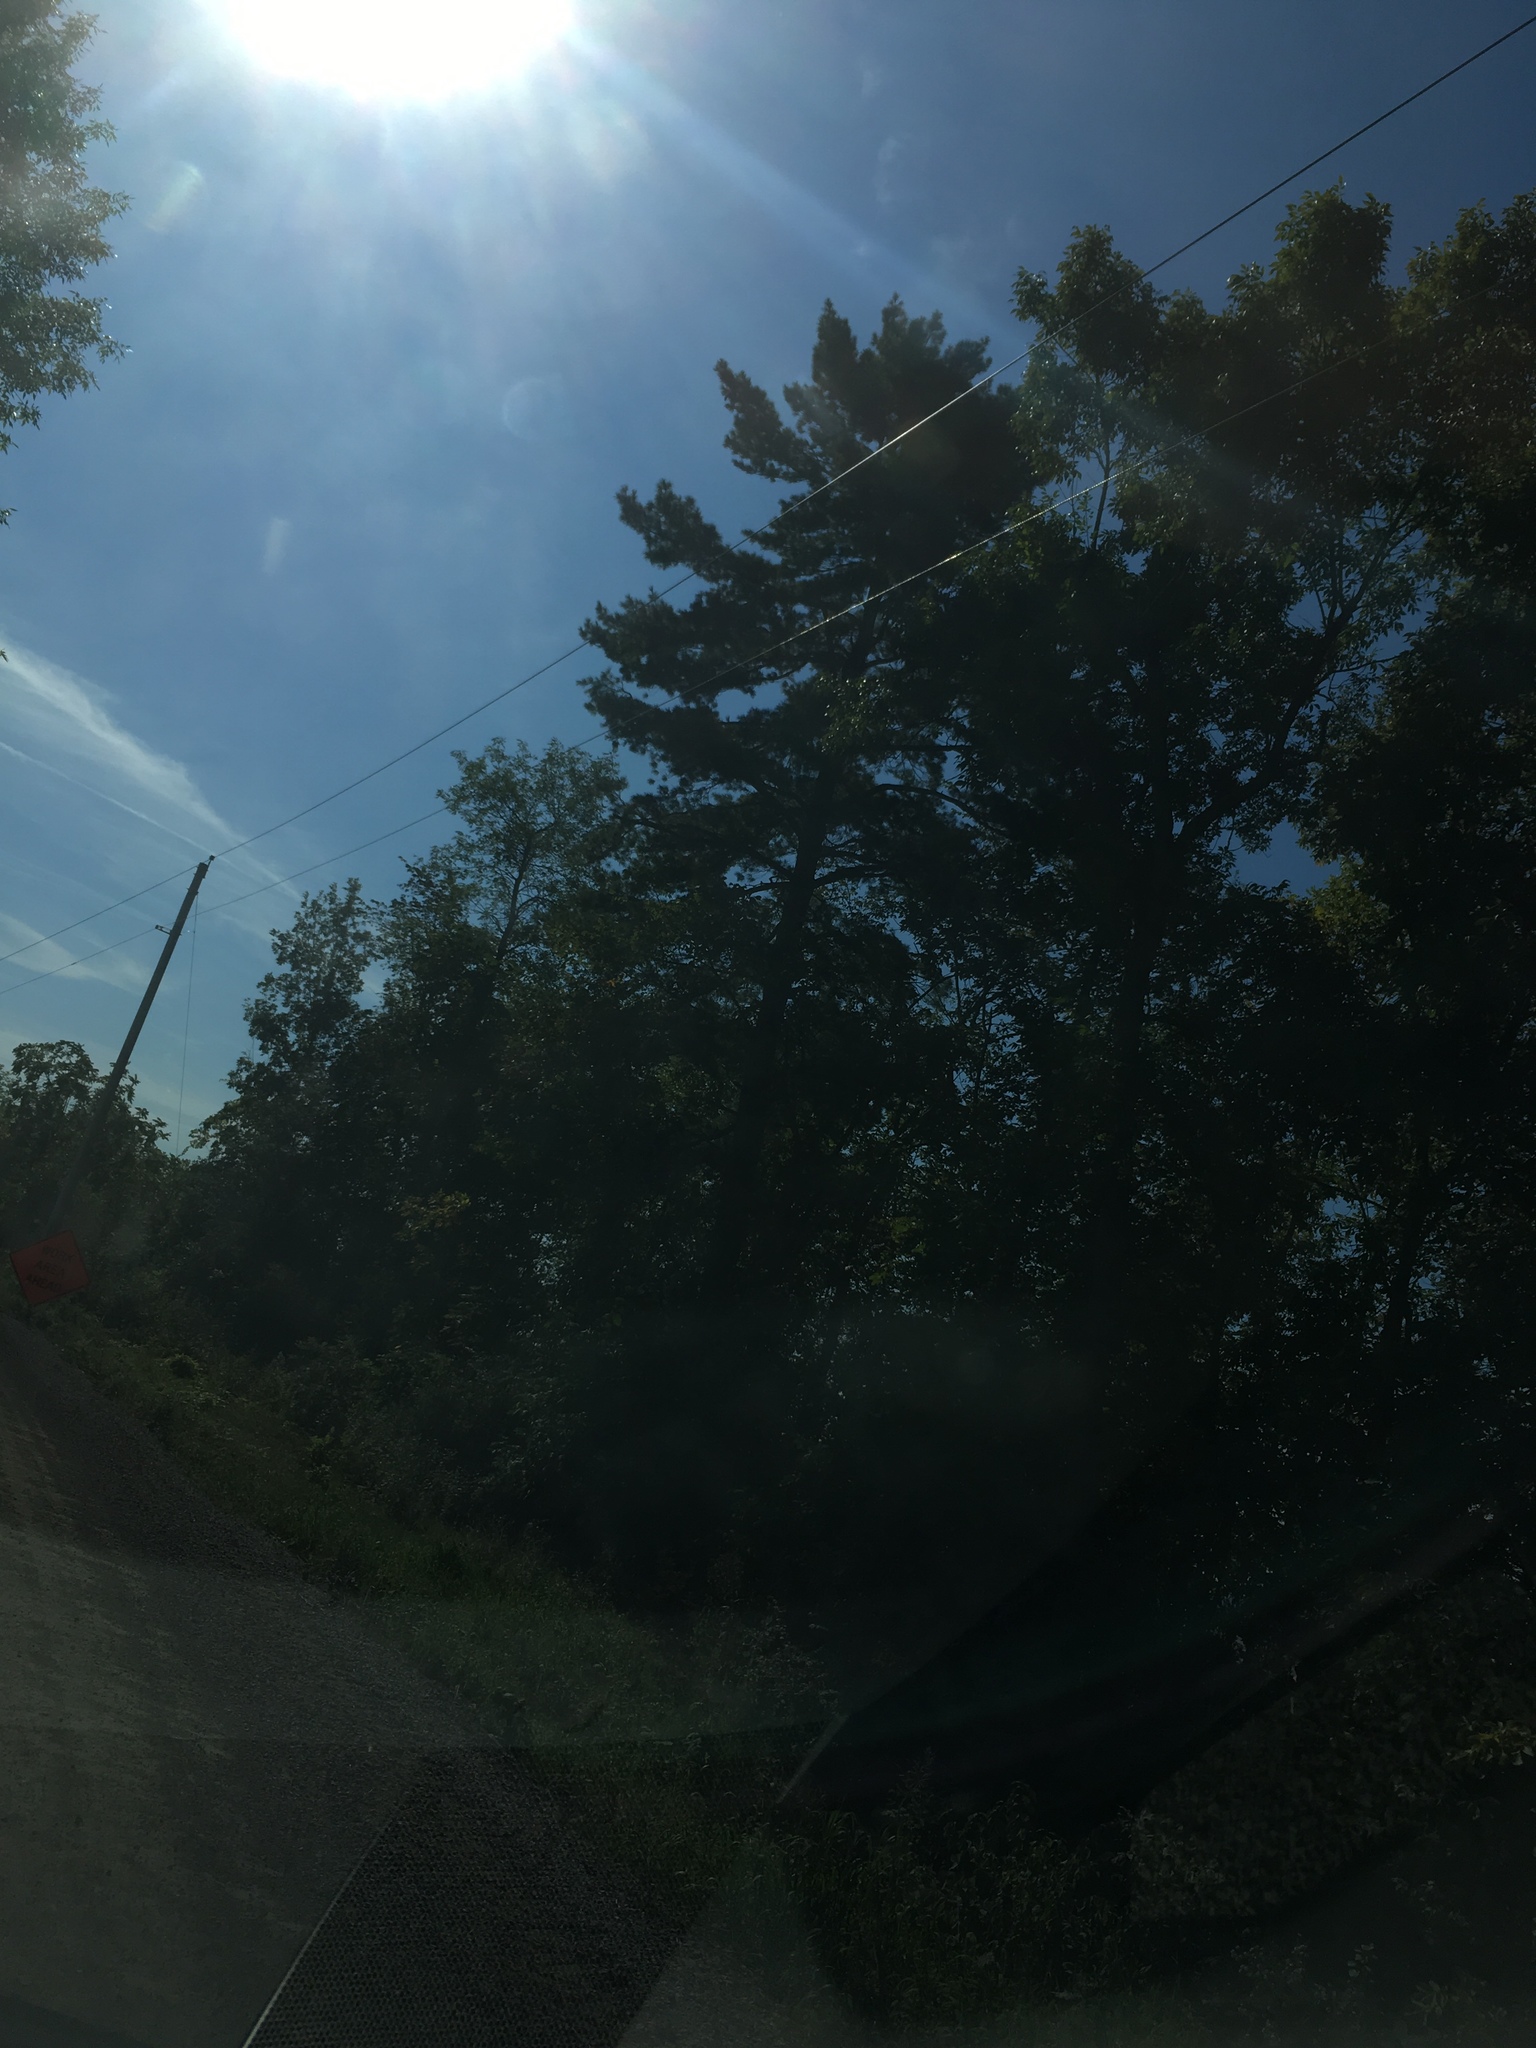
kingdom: Plantae
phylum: Tracheophyta
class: Pinopsida
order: Pinales
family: Pinaceae
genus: Pinus
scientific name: Pinus strobus
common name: Weymouth pine
